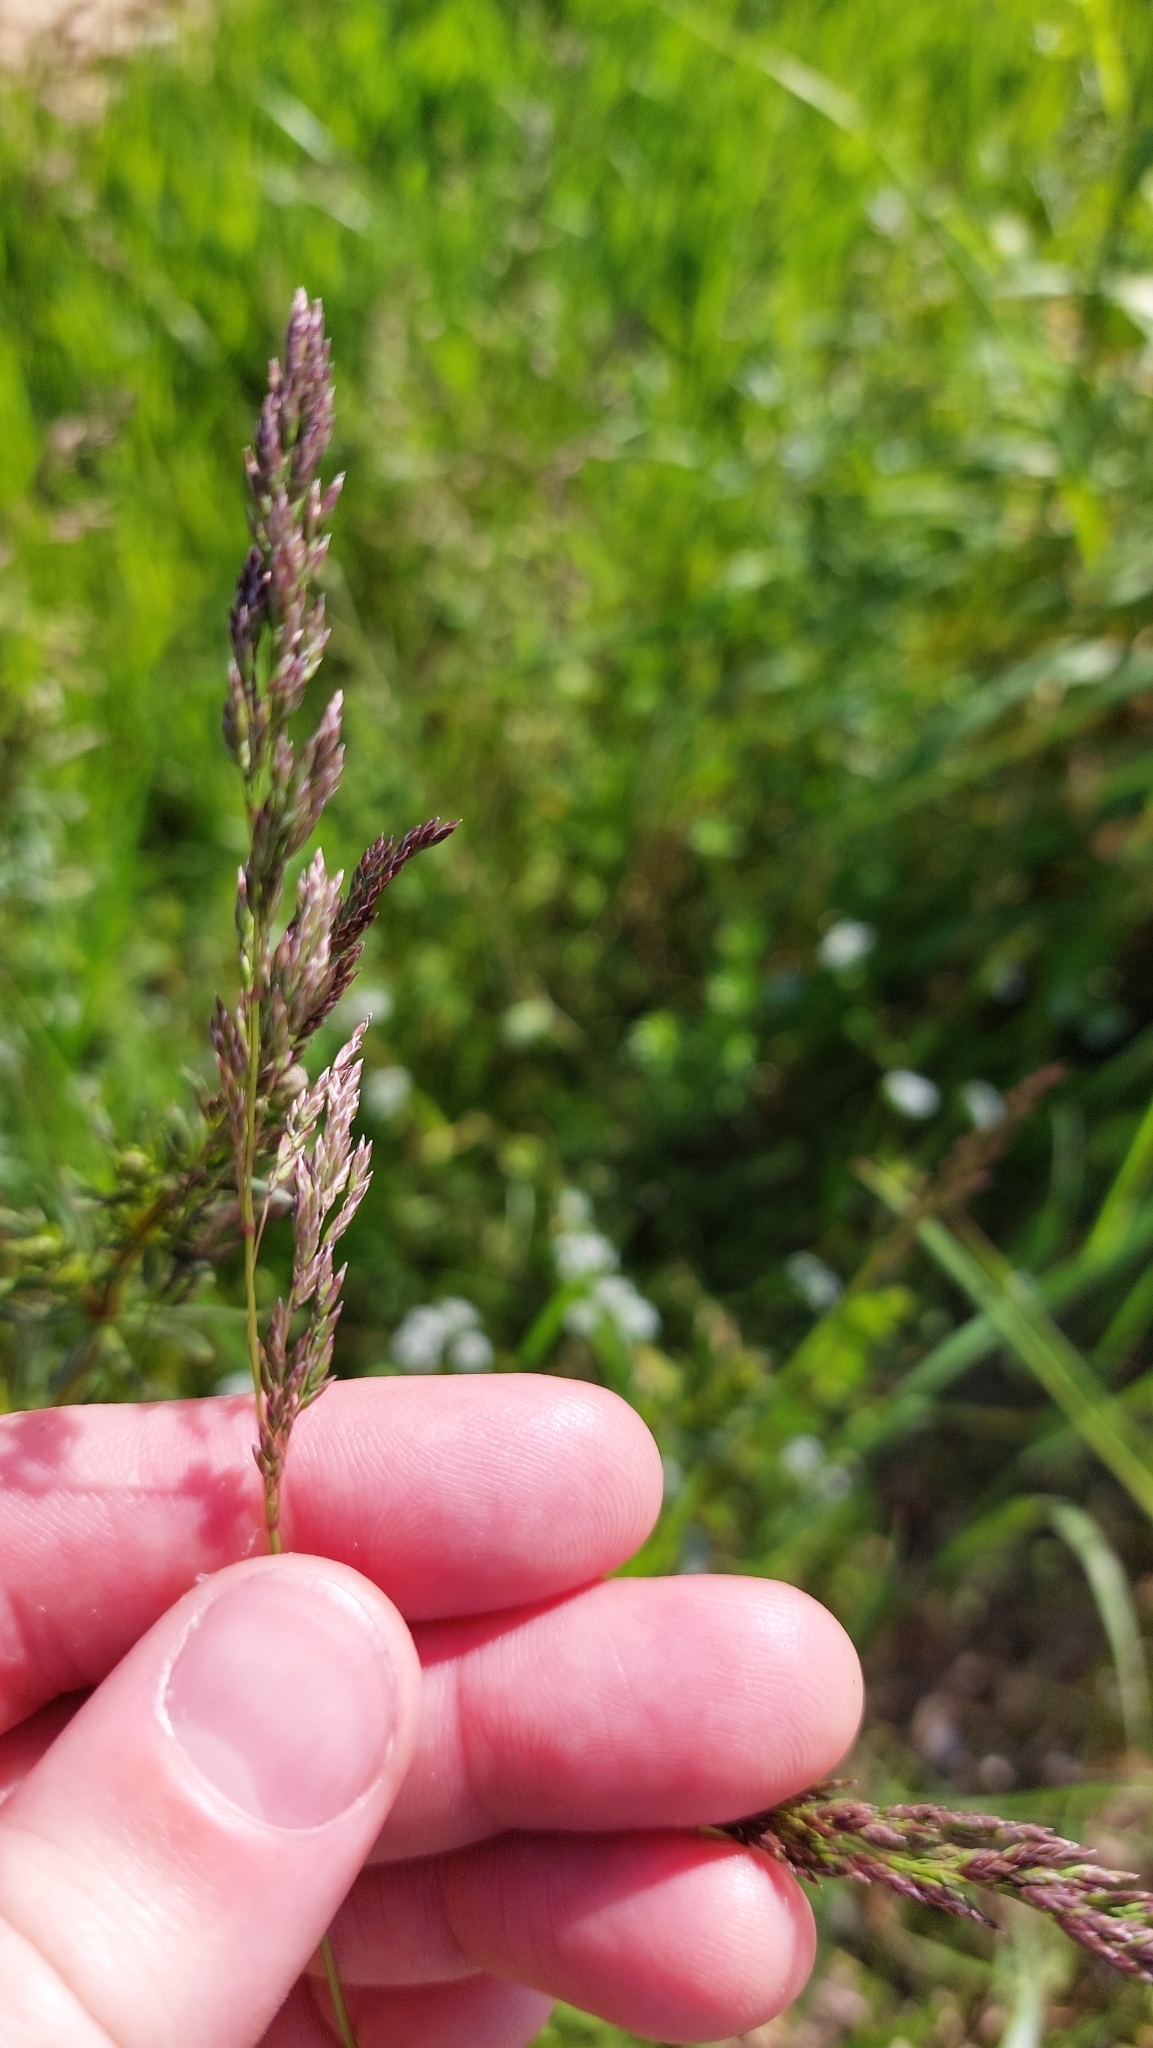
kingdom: Plantae
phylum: Tracheophyta
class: Liliopsida
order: Poales
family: Poaceae
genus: Poa
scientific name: Poa pratensis
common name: Kentucky bluegrass
